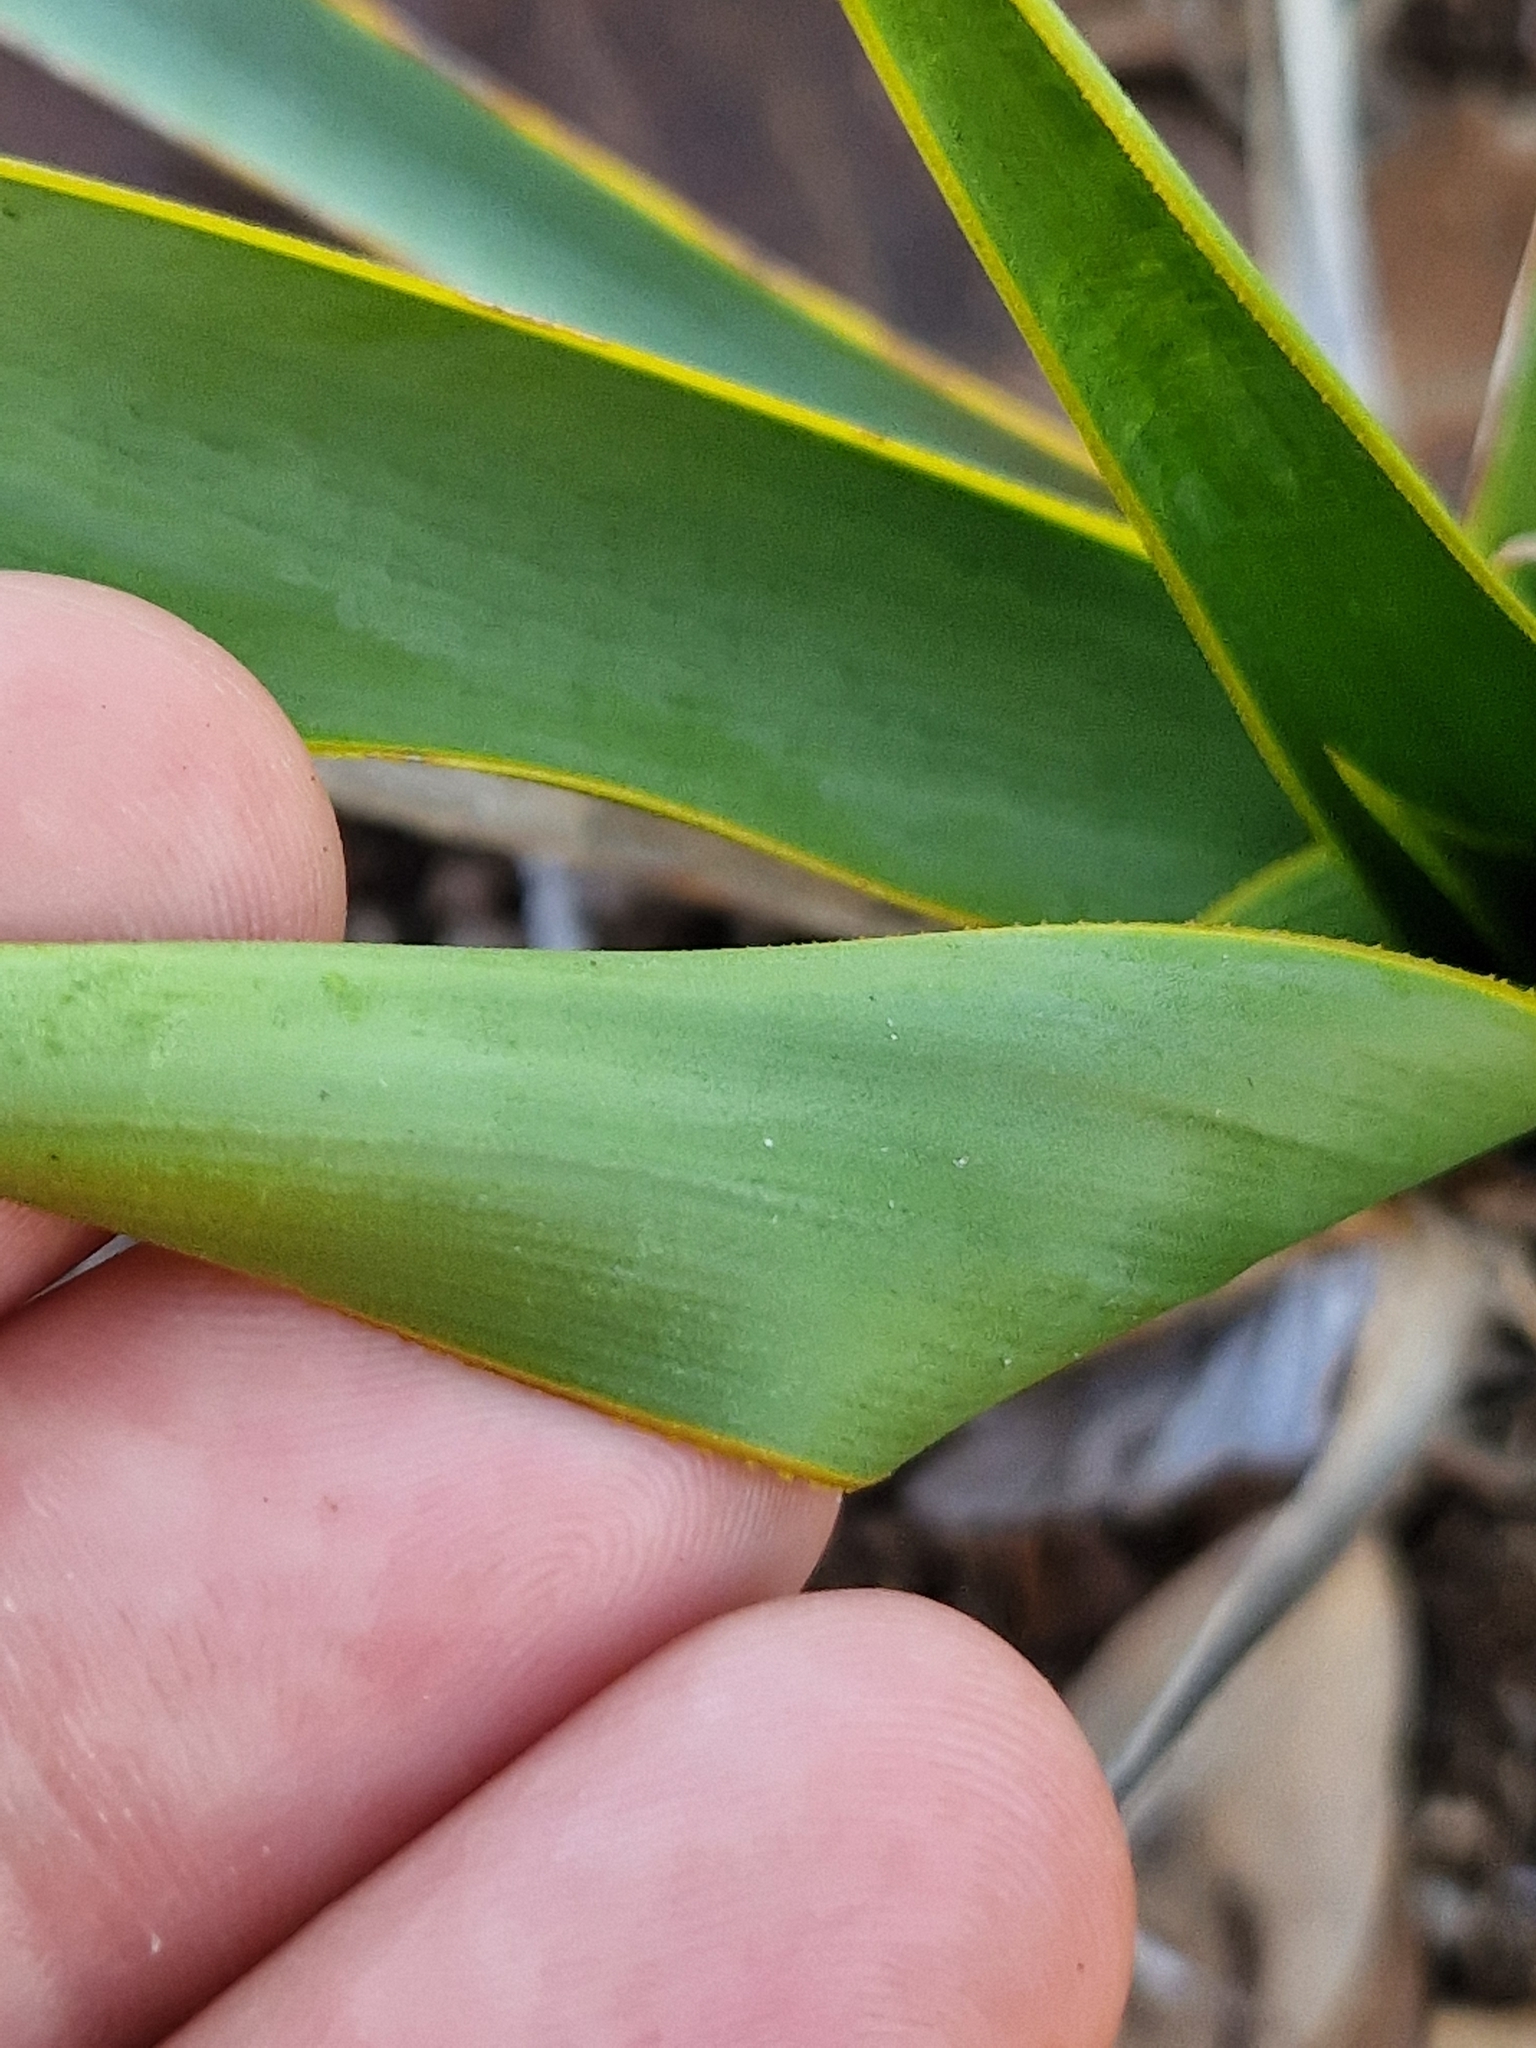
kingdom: Plantae
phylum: Tracheophyta
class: Liliopsida
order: Asparagales
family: Asparagaceae
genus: Yucca
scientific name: Yucca rupicola
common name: Twisted-leaf spanish-dagger
